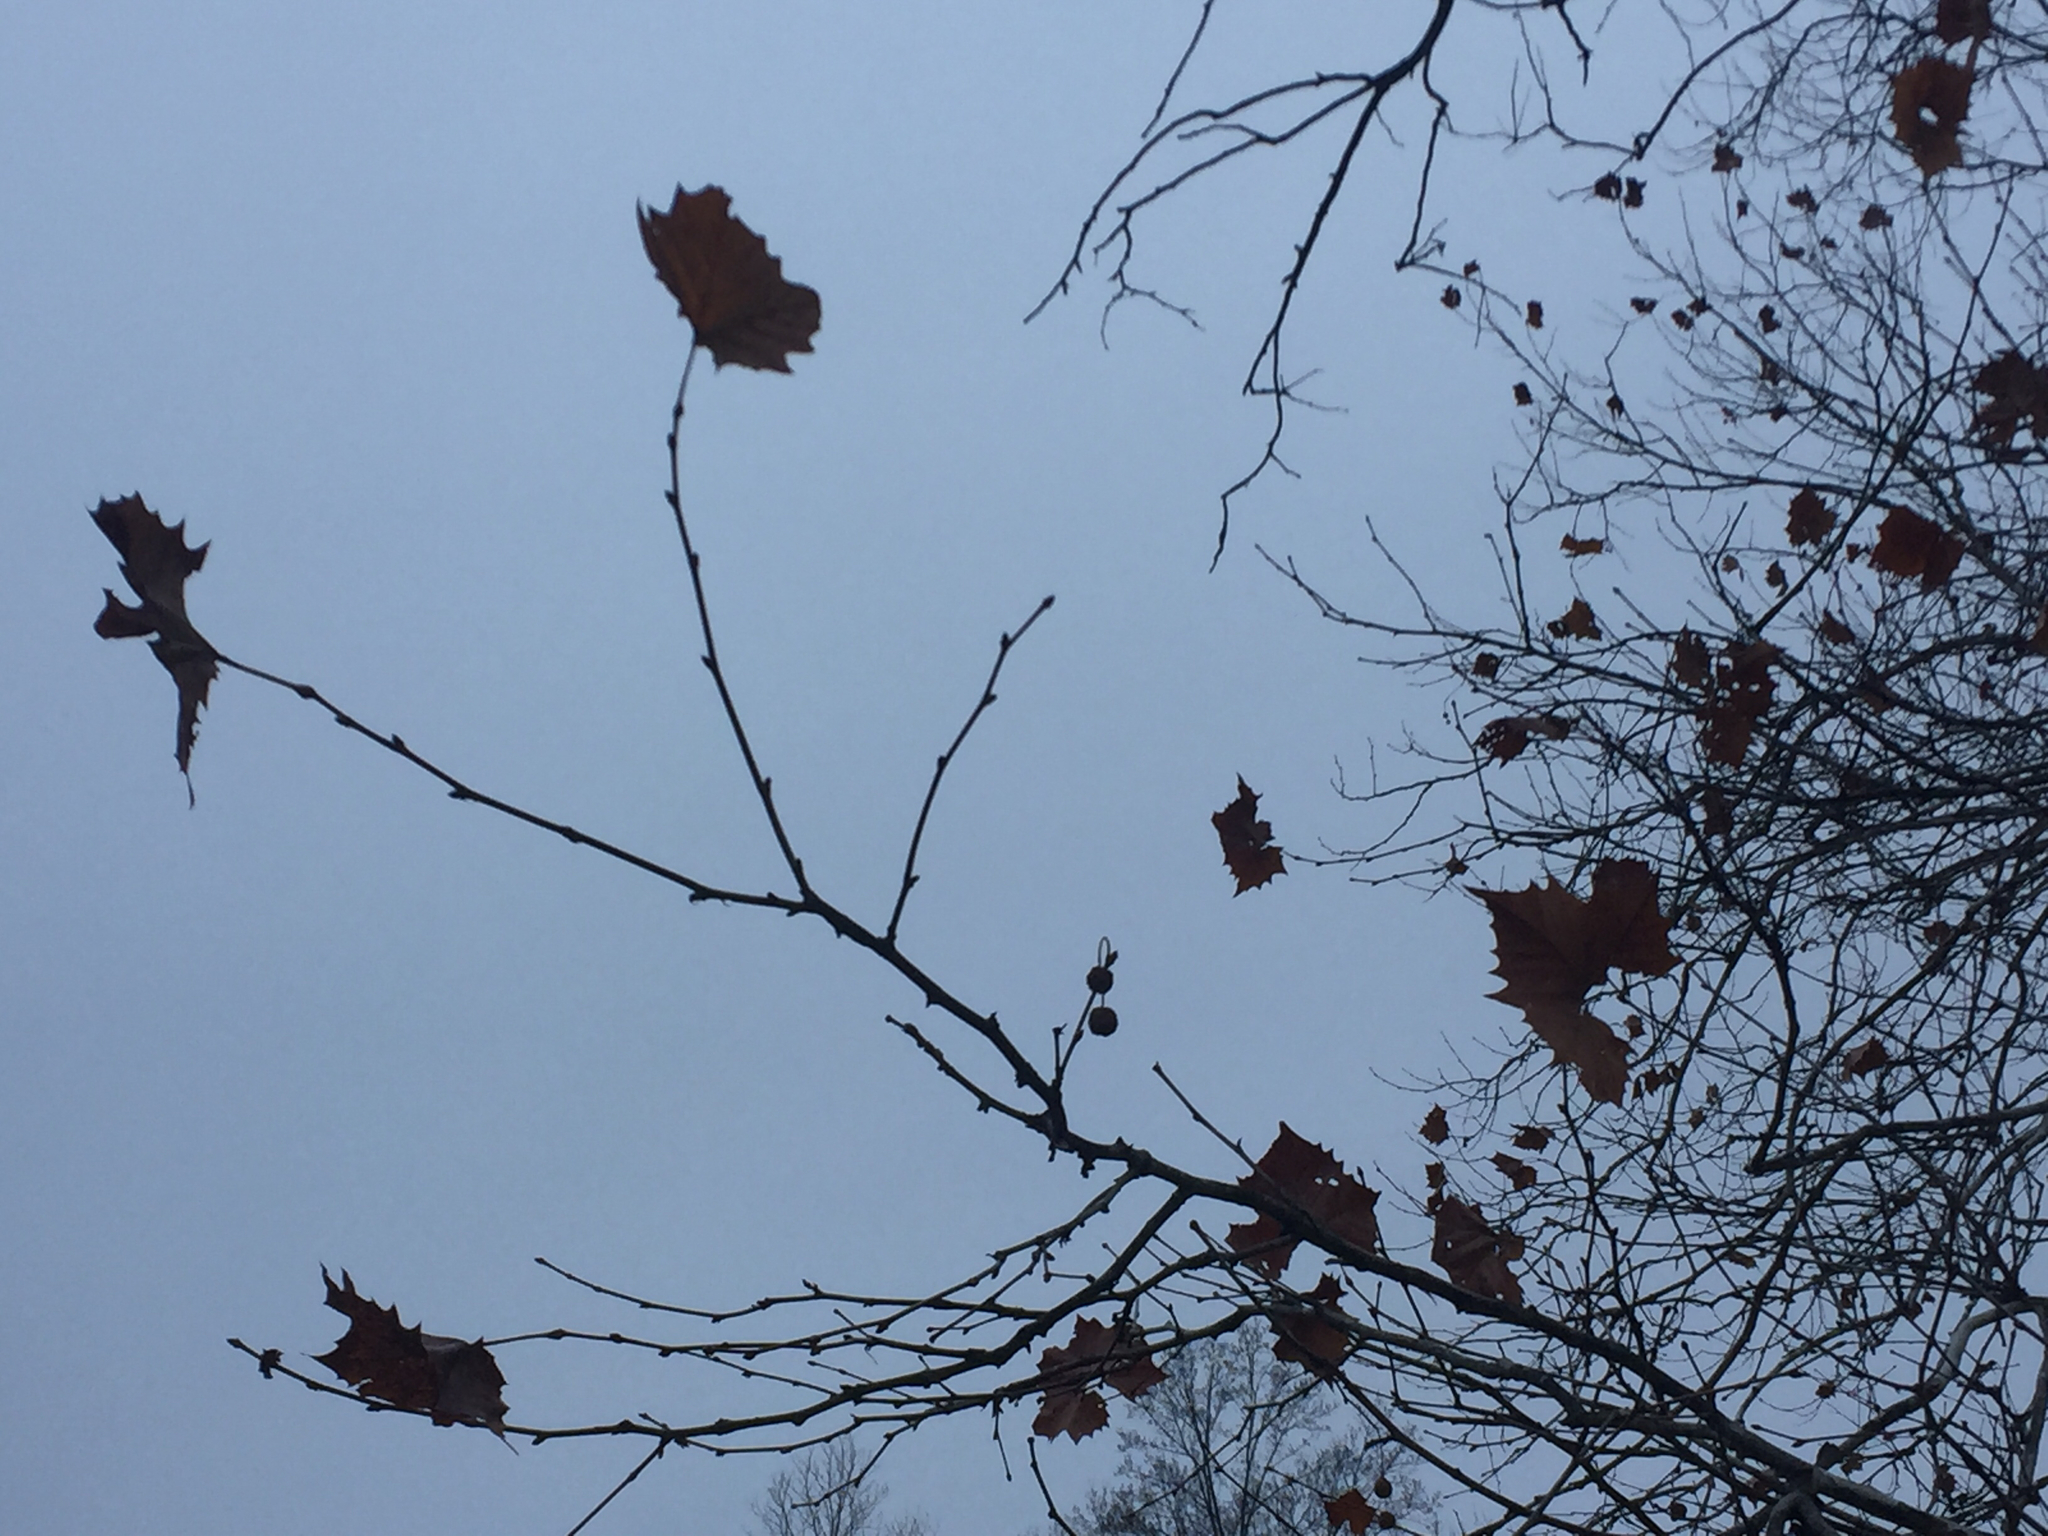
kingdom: Plantae
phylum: Tracheophyta
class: Magnoliopsida
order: Proteales
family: Platanaceae
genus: Platanus
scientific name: Platanus occidentalis
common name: American sycamore
